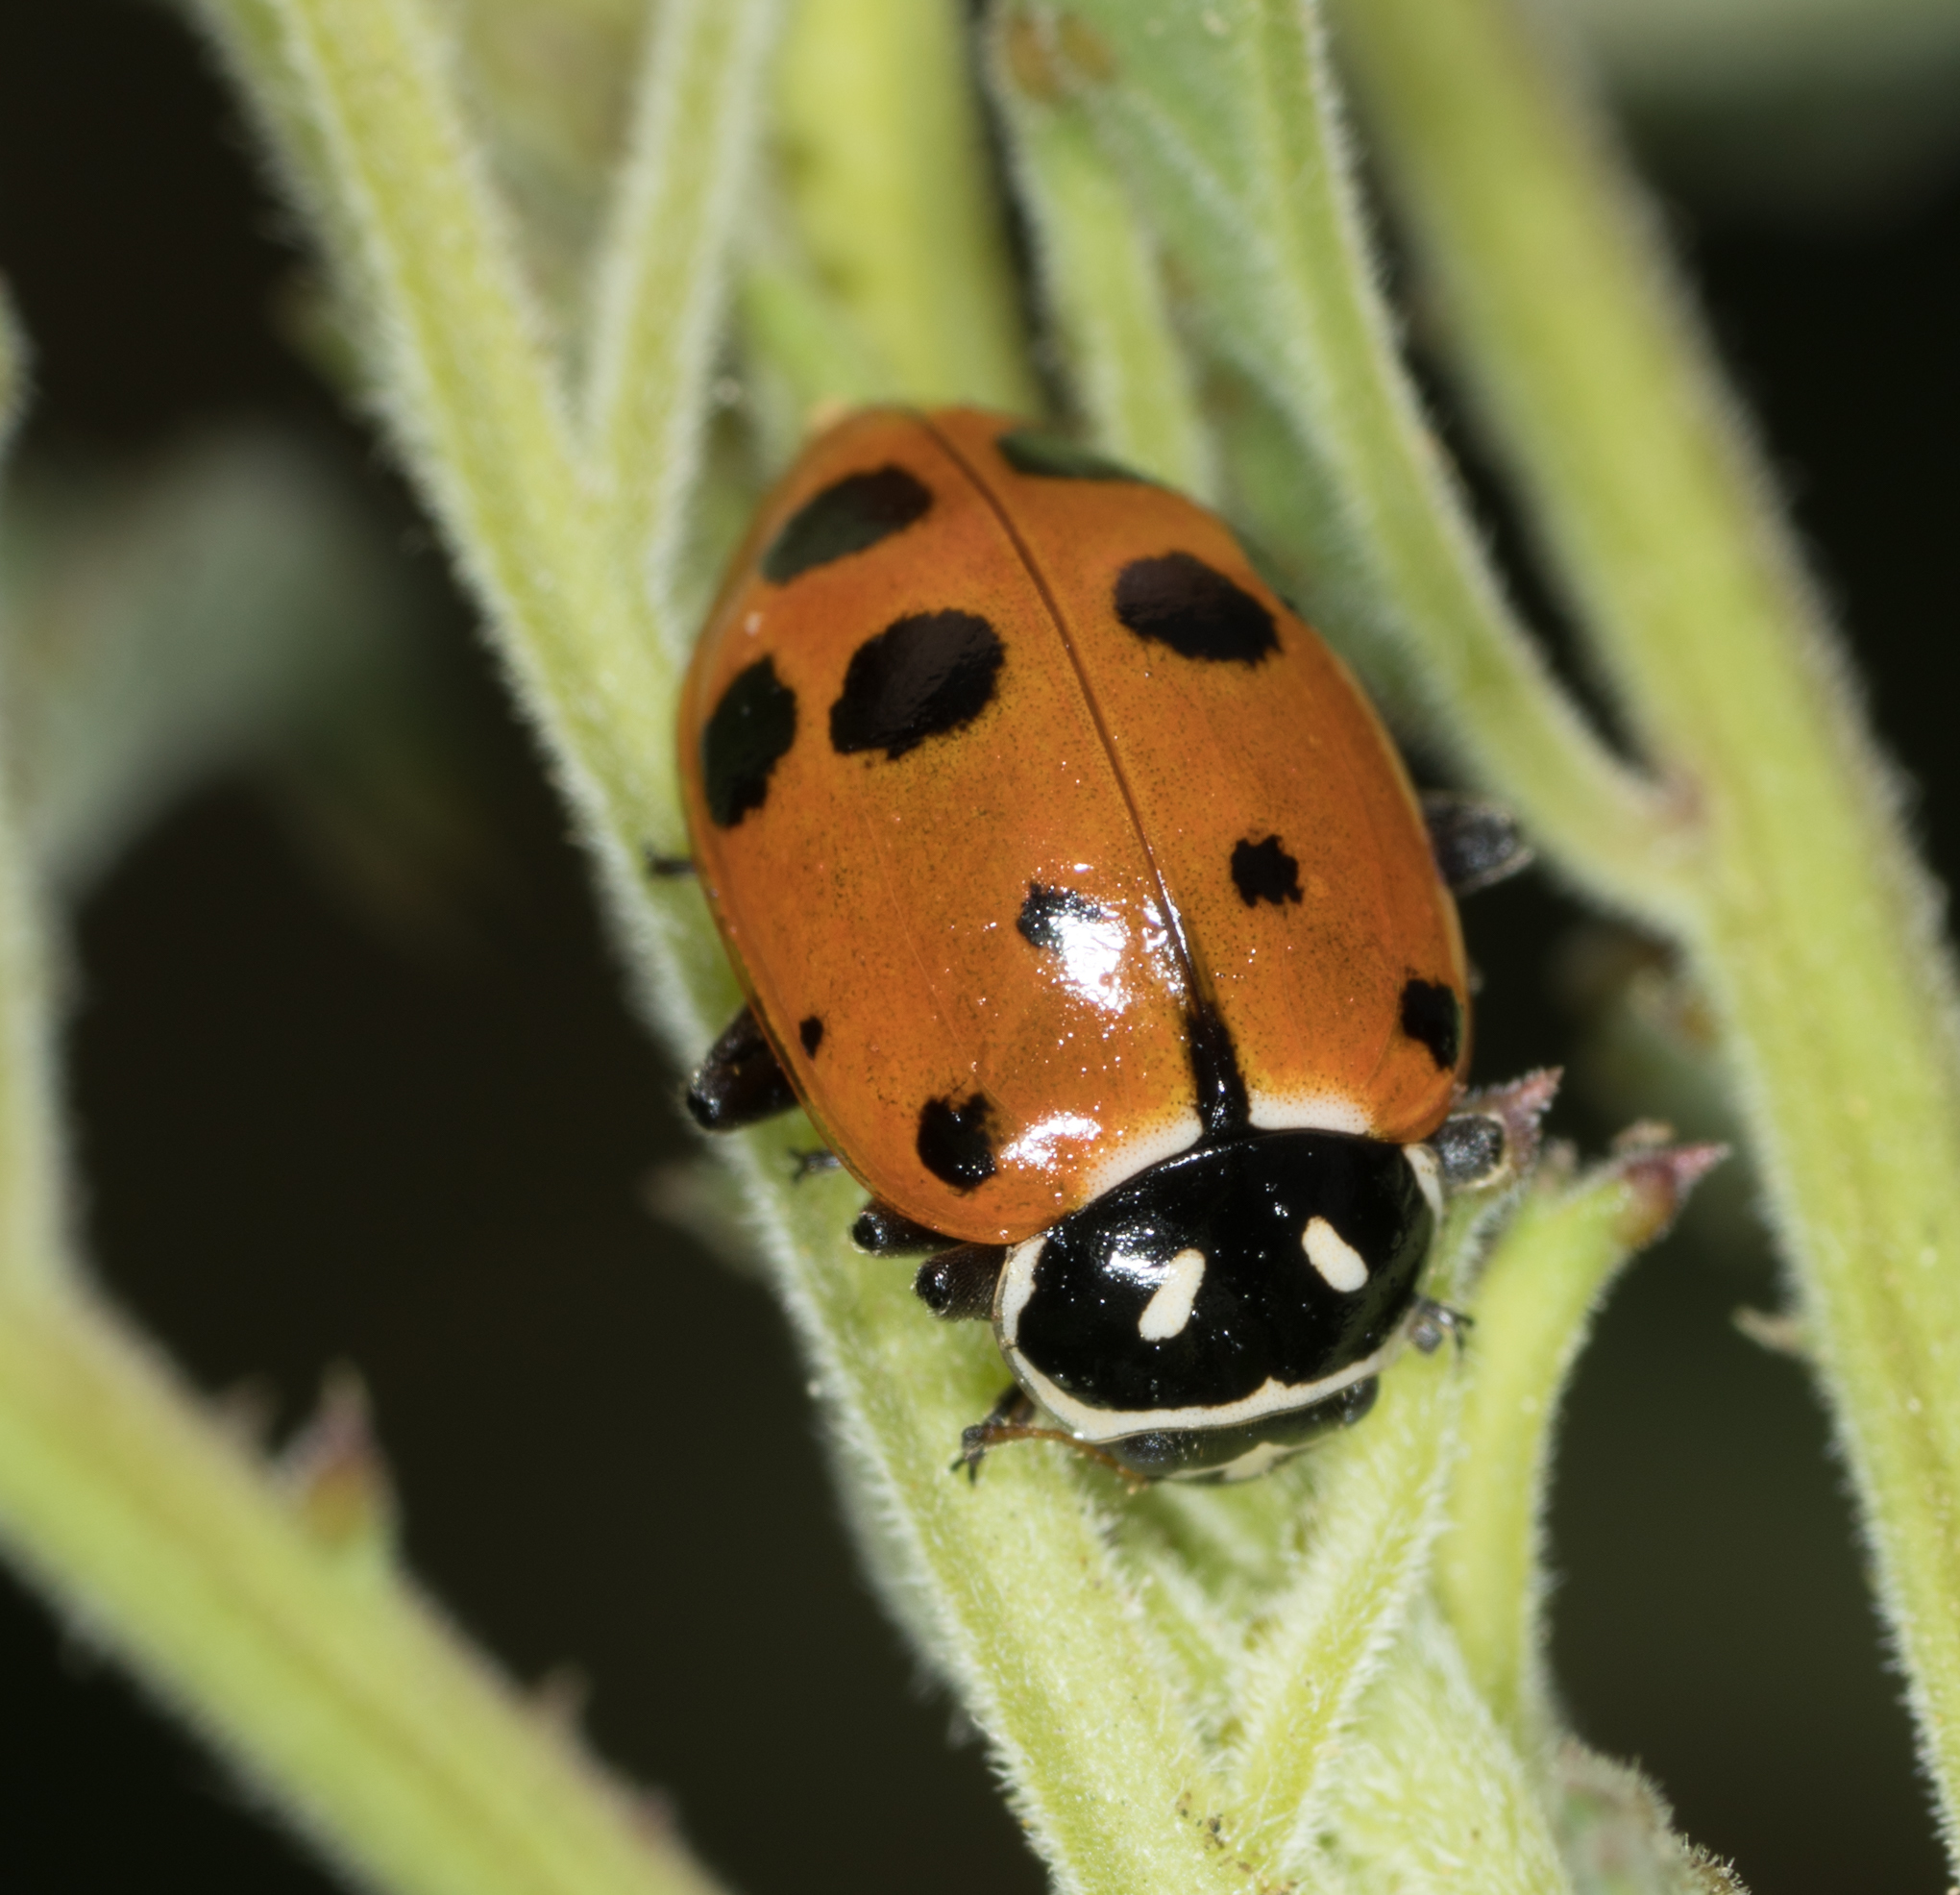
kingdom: Animalia
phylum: Arthropoda
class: Insecta
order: Coleoptera
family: Coccinellidae
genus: Hippodamia
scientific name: Hippodamia convergens
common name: Convergent lady beetle
